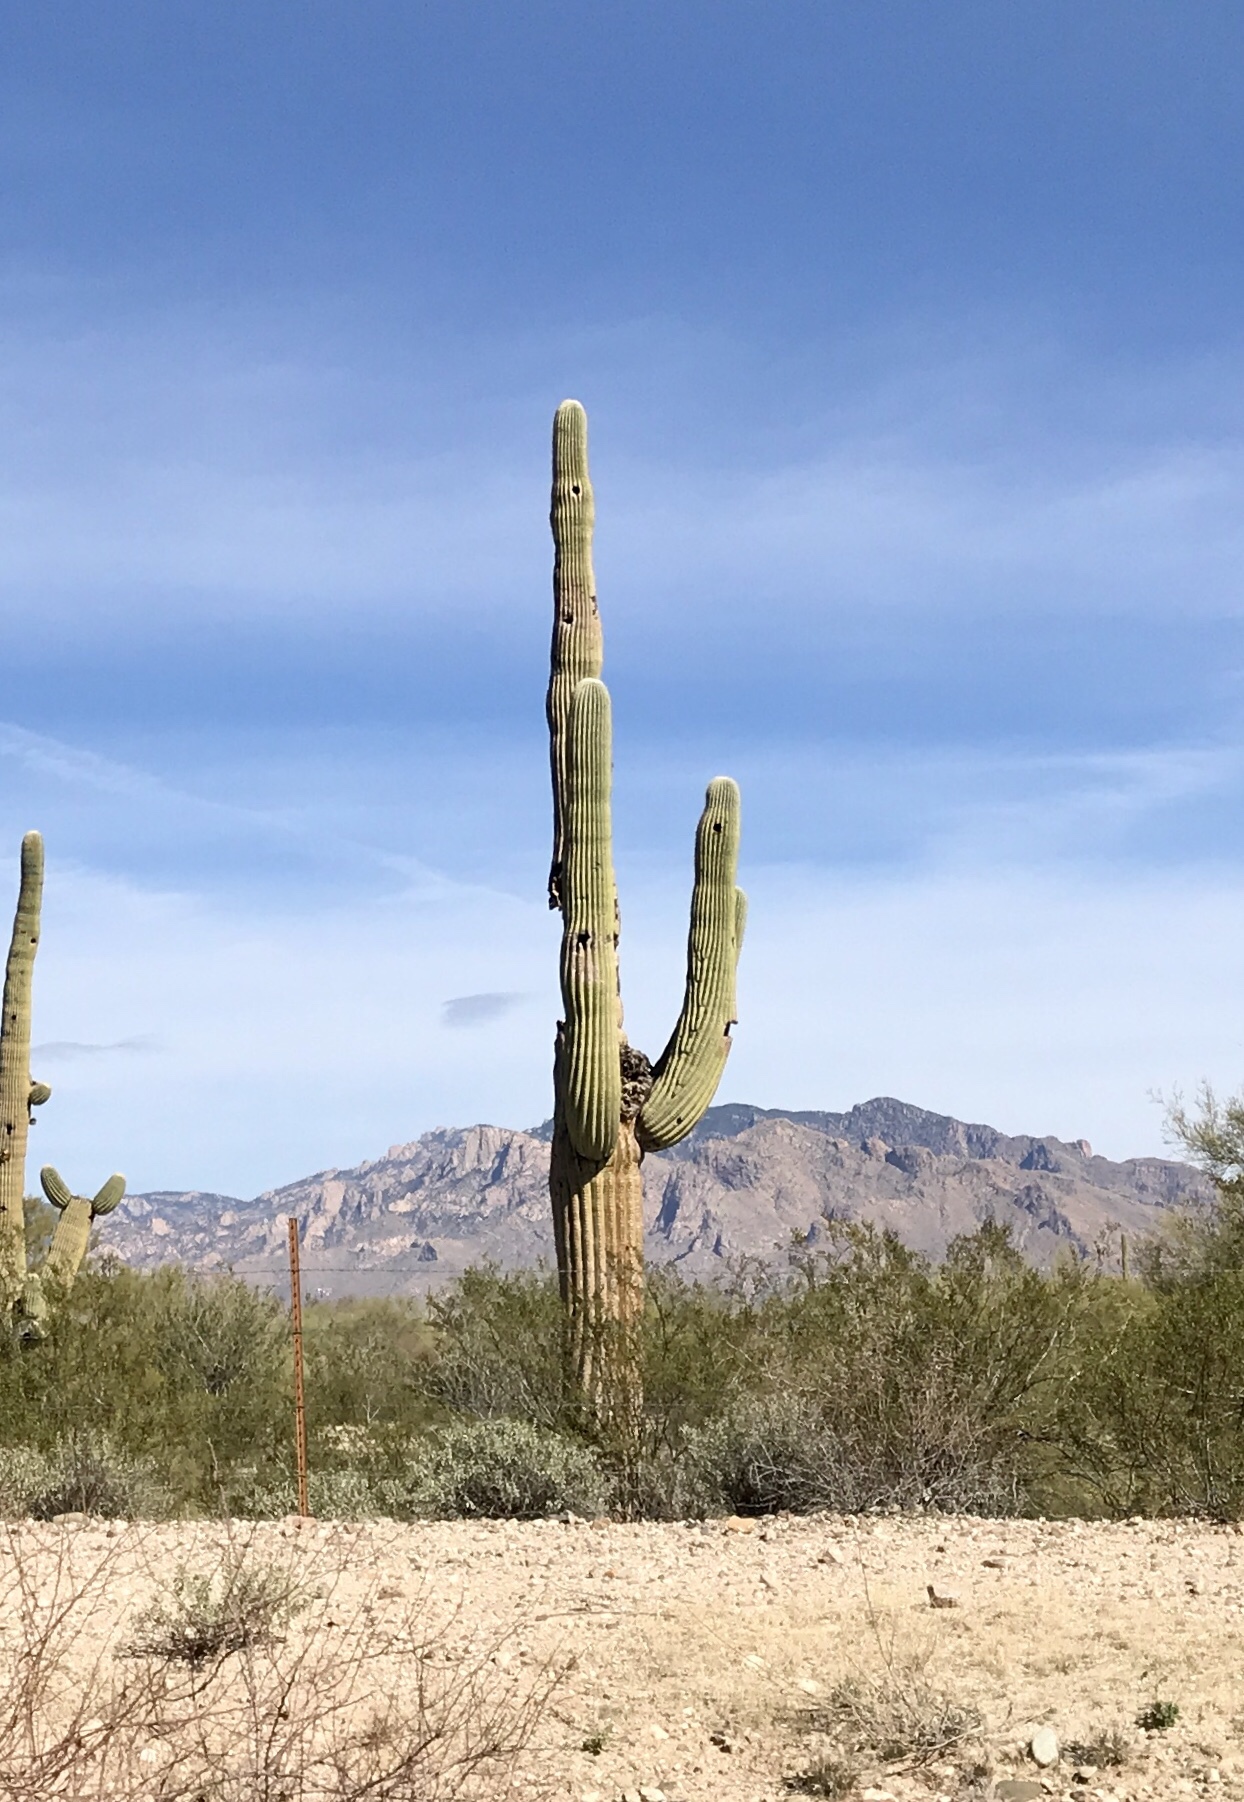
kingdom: Plantae
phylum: Tracheophyta
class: Magnoliopsida
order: Caryophyllales
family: Cactaceae
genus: Carnegiea
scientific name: Carnegiea gigantea
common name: Saguaro
